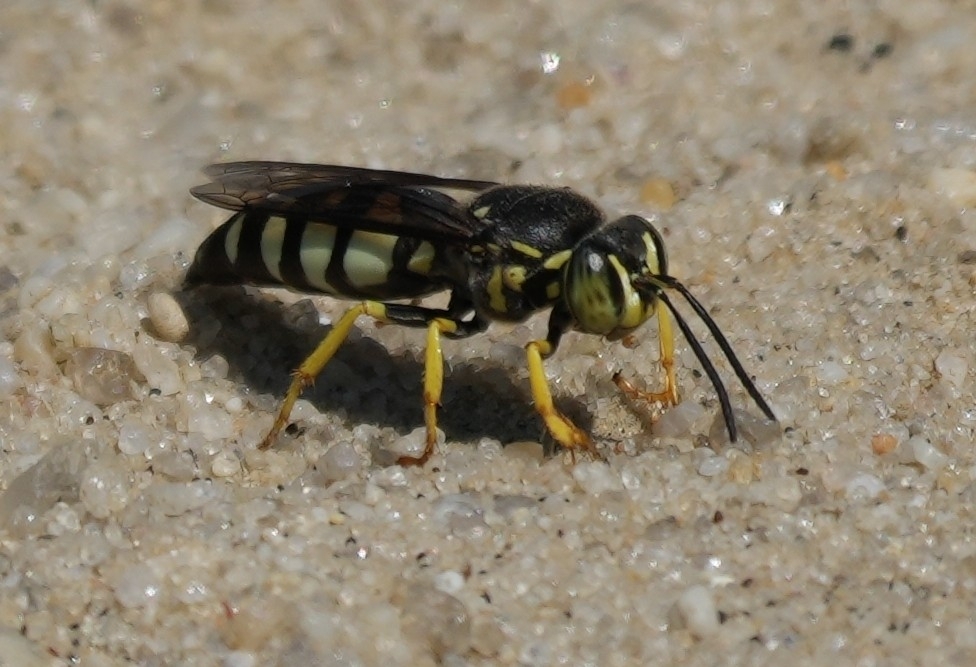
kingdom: Animalia
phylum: Arthropoda
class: Insecta
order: Hymenoptera
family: Crabronidae
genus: Bicyrtes
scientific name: Bicyrtes quadrifasciatus
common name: Four-banded stink bug hunter wasp
